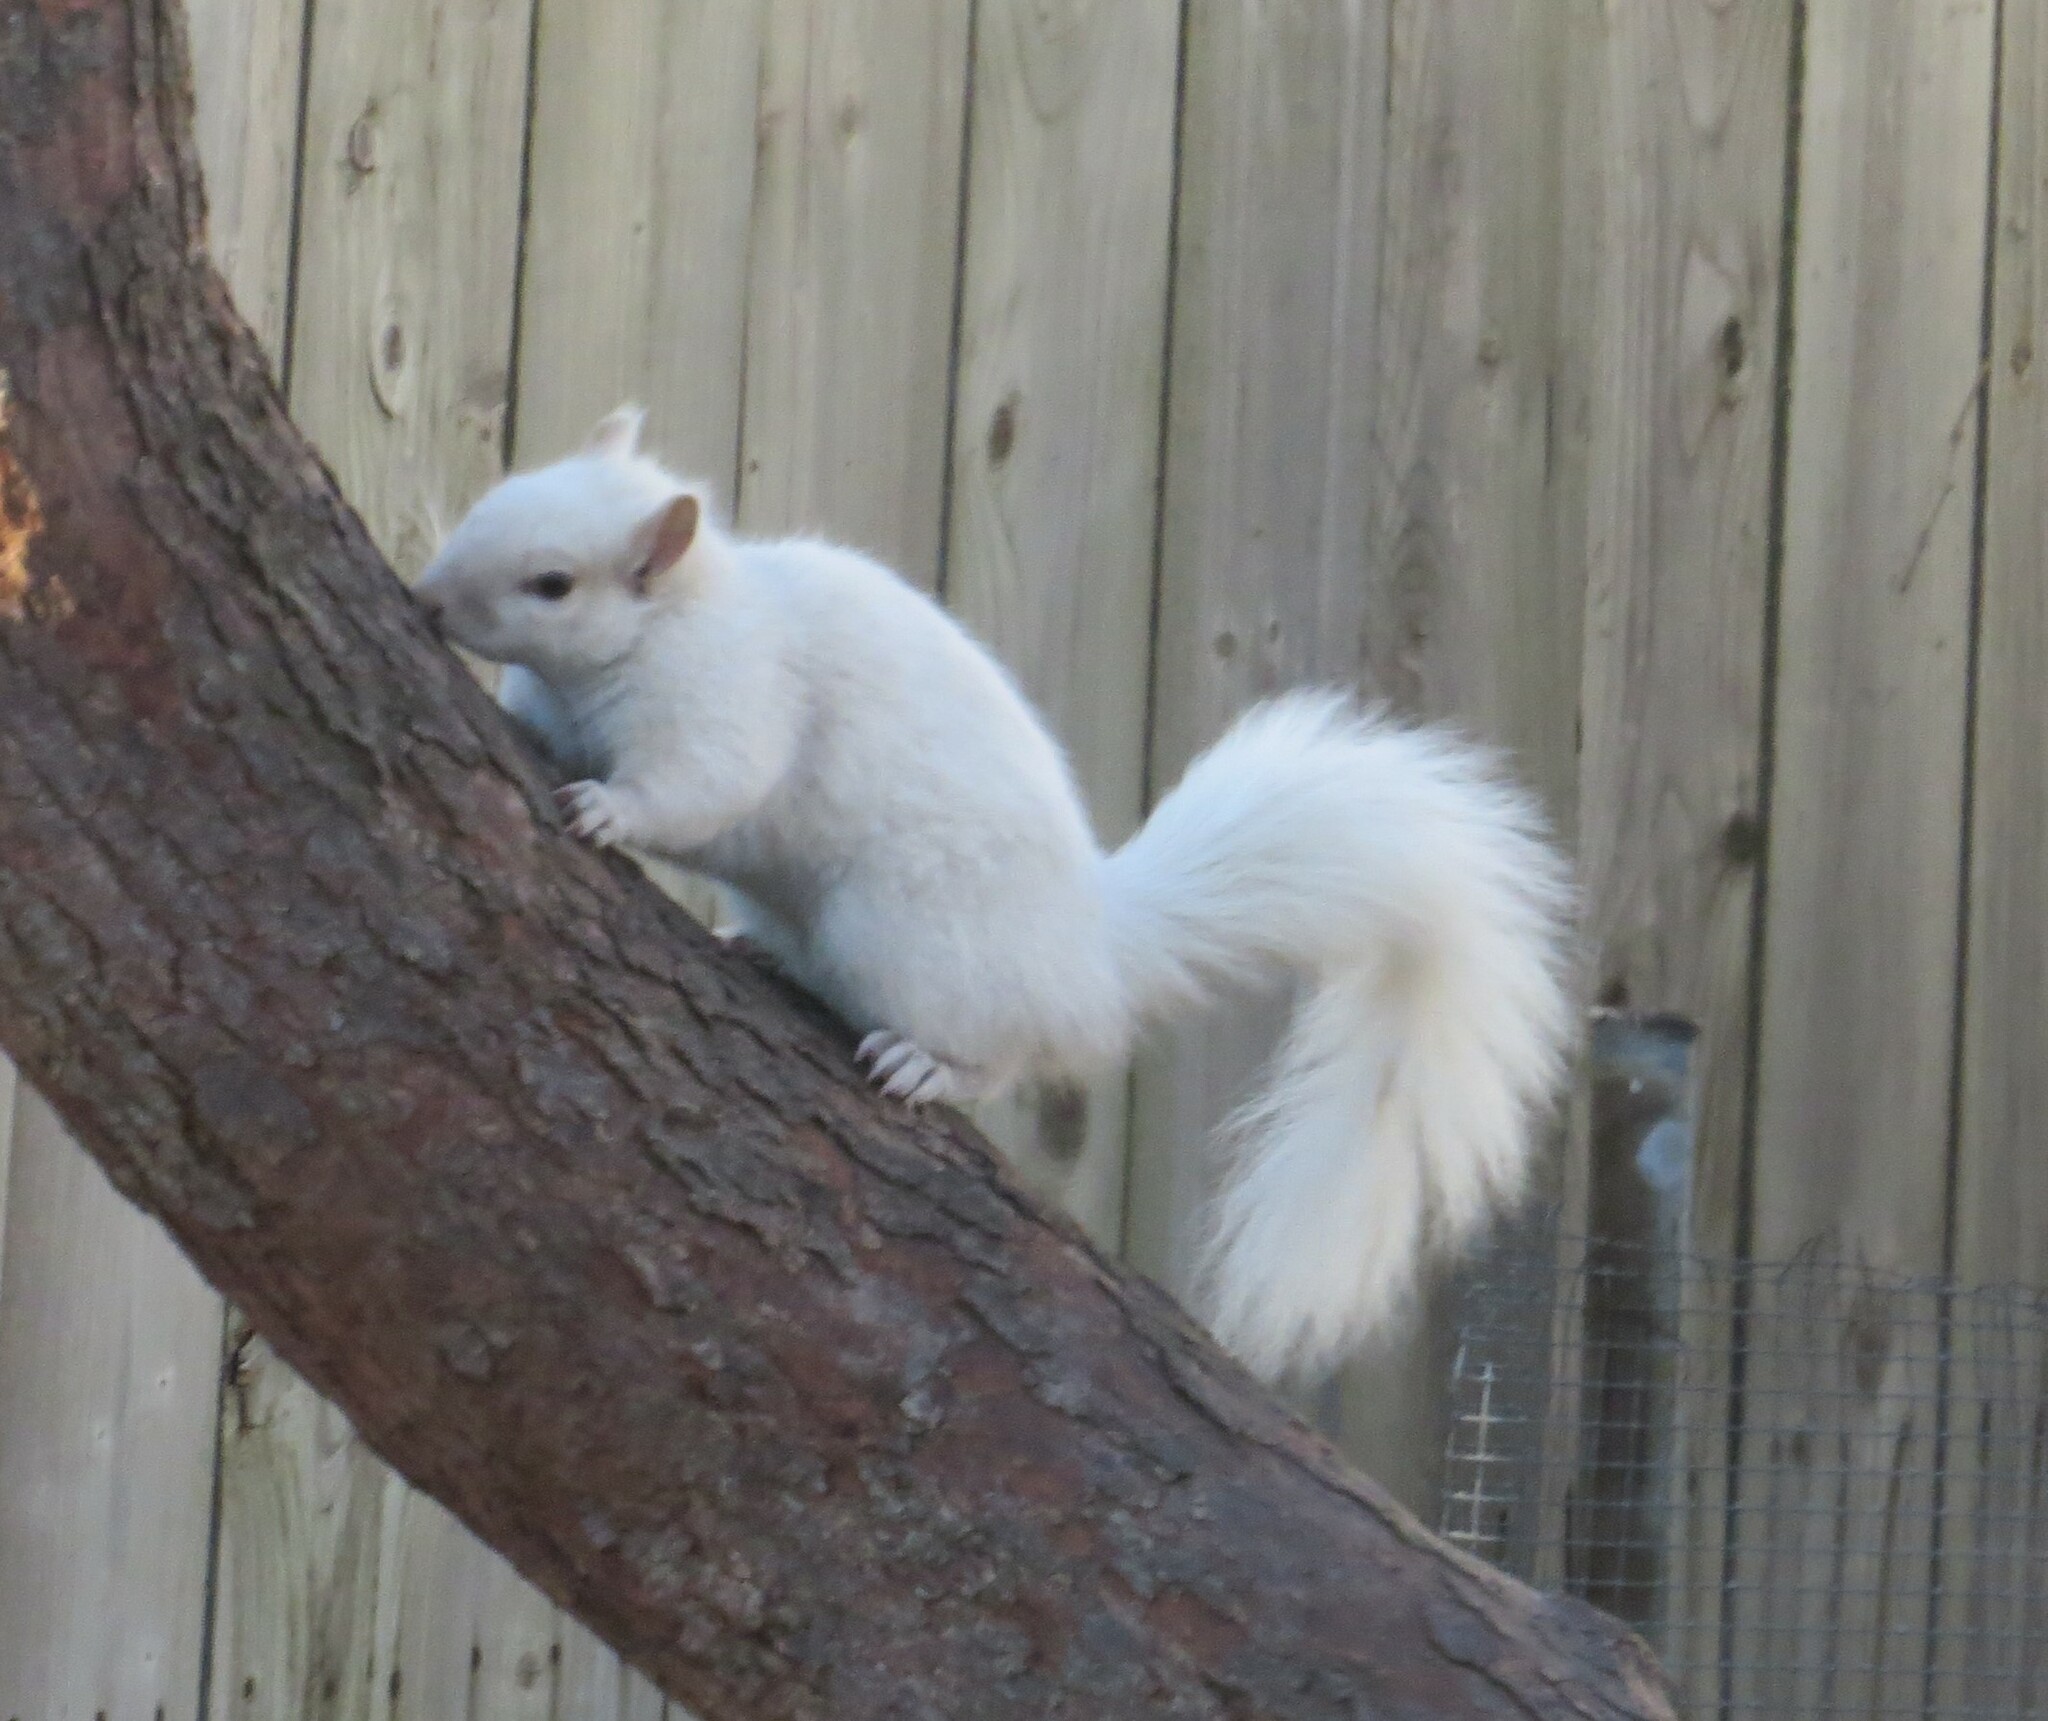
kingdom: Animalia
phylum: Chordata
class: Mammalia
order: Rodentia
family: Sciuridae
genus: Sciurus
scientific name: Sciurus carolinensis
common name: Eastern gray squirrel
